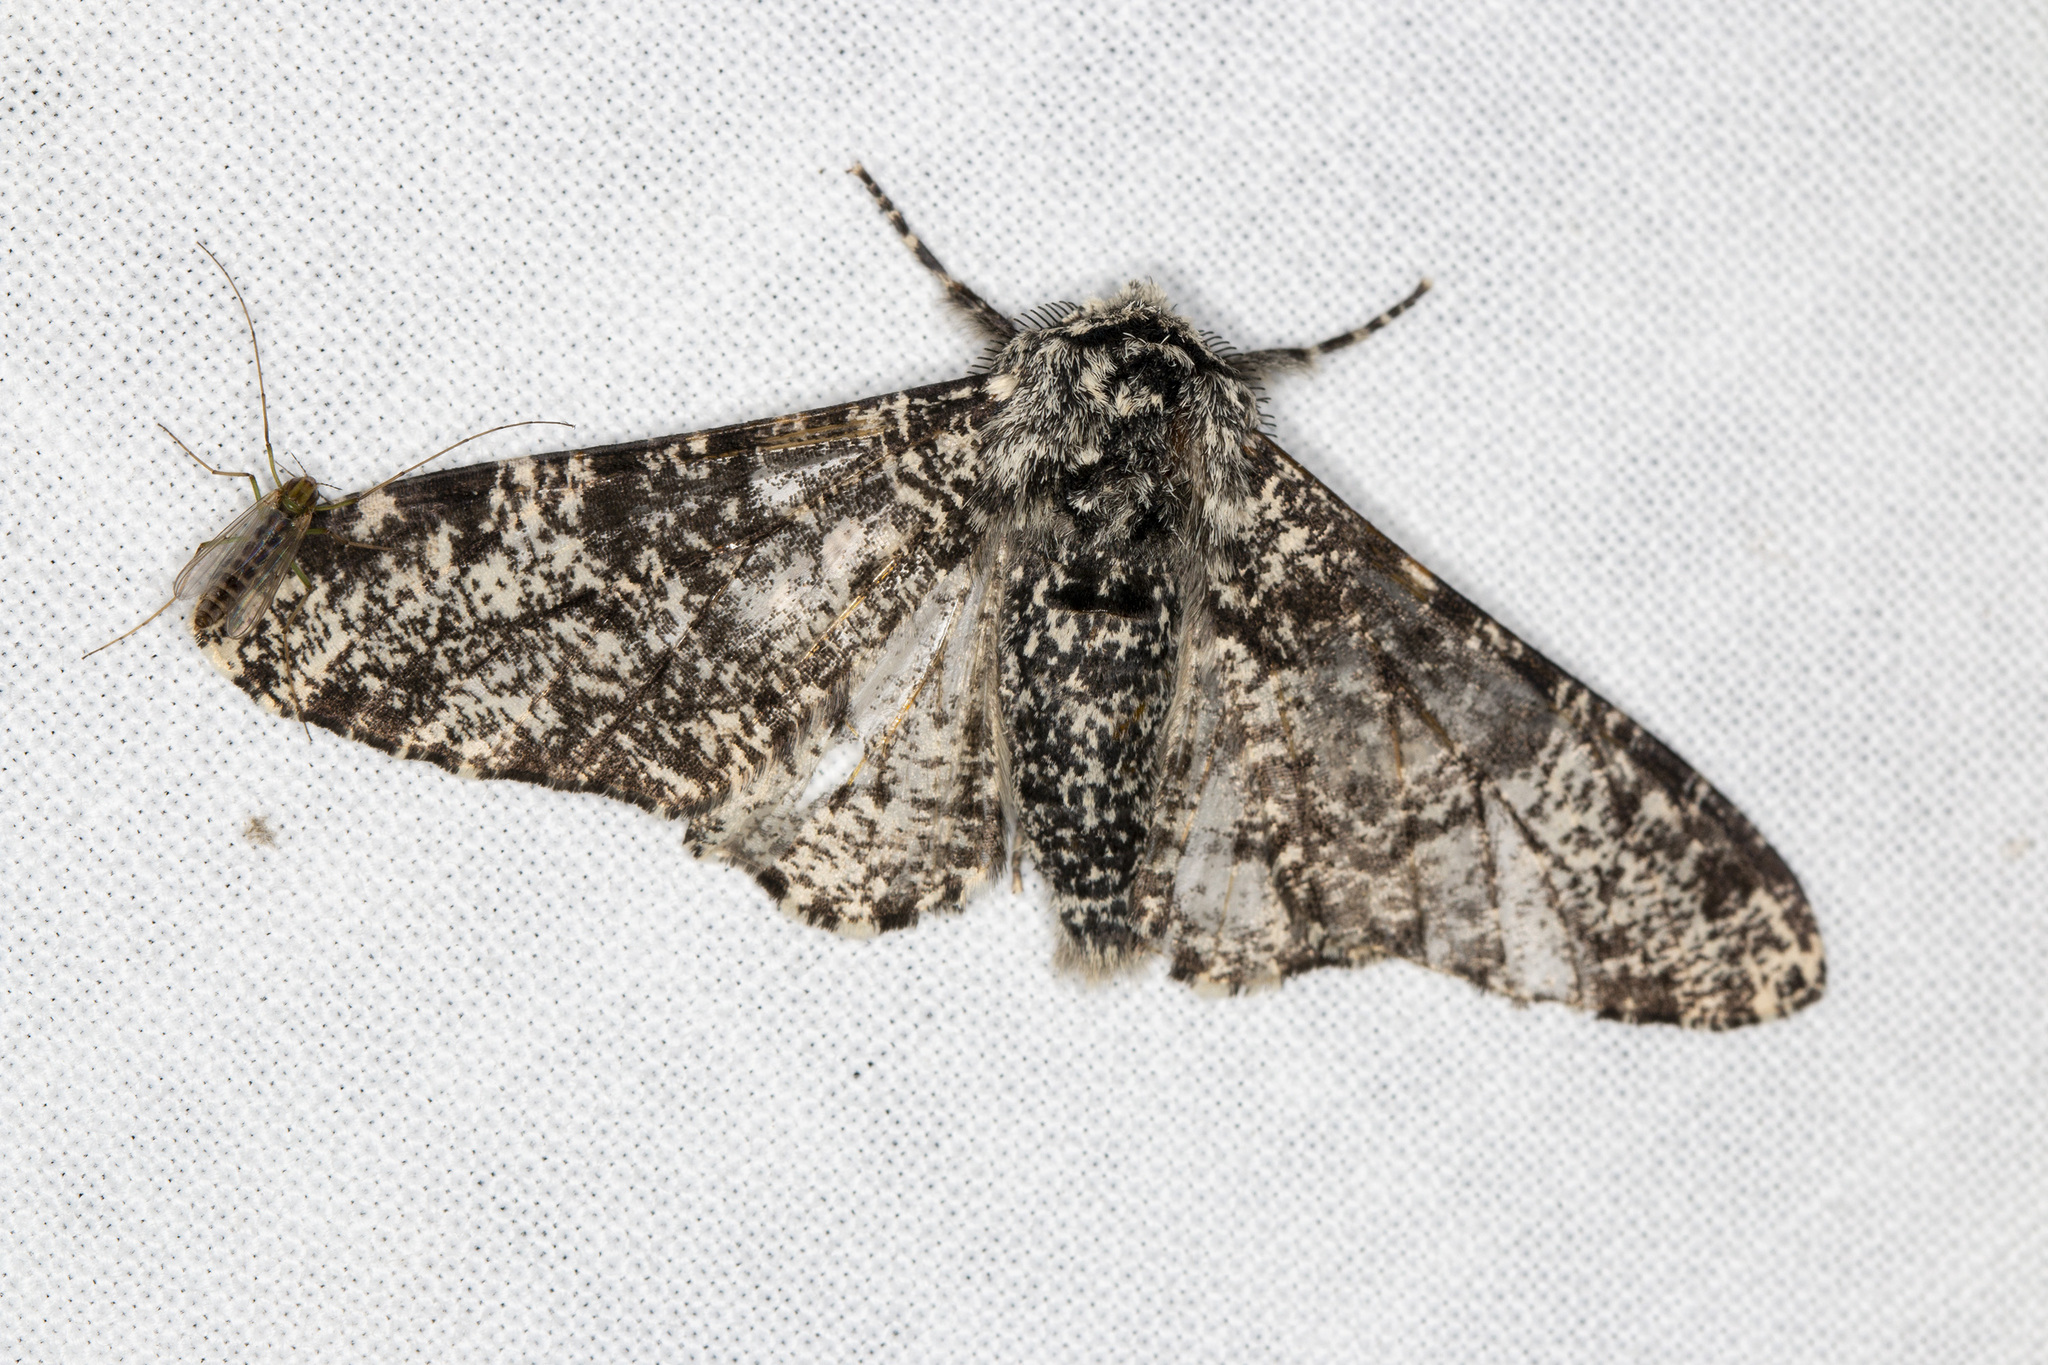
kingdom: Animalia
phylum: Arthropoda
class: Insecta
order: Lepidoptera
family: Geometridae
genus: Biston
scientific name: Biston betularia
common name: Peppered moth
